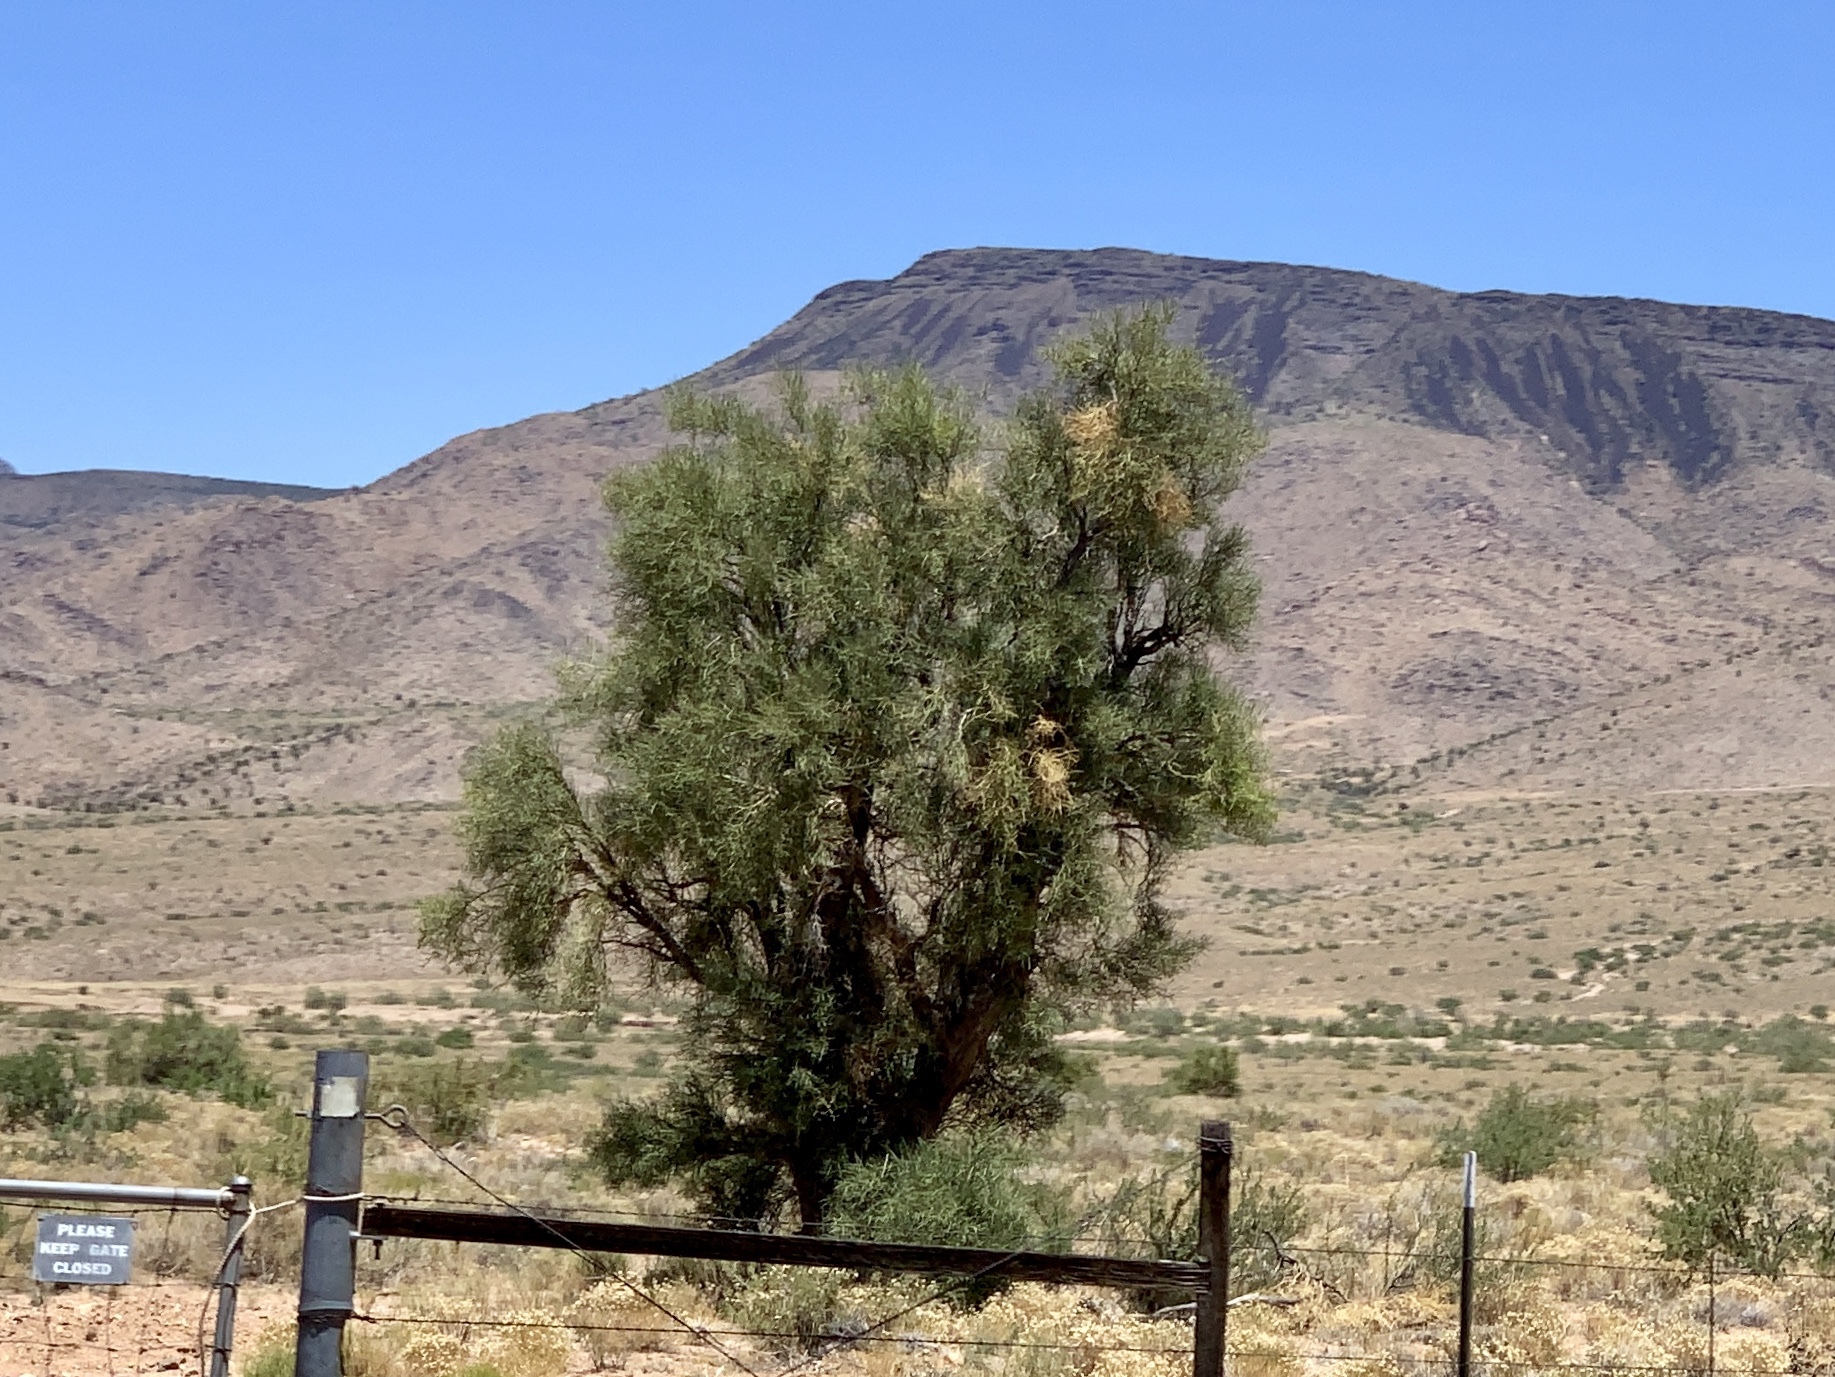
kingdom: Plantae
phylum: Tracheophyta
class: Magnoliopsida
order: Celastrales
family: Celastraceae
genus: Canotia
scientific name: Canotia holacantha
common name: Crucifixion thorns
